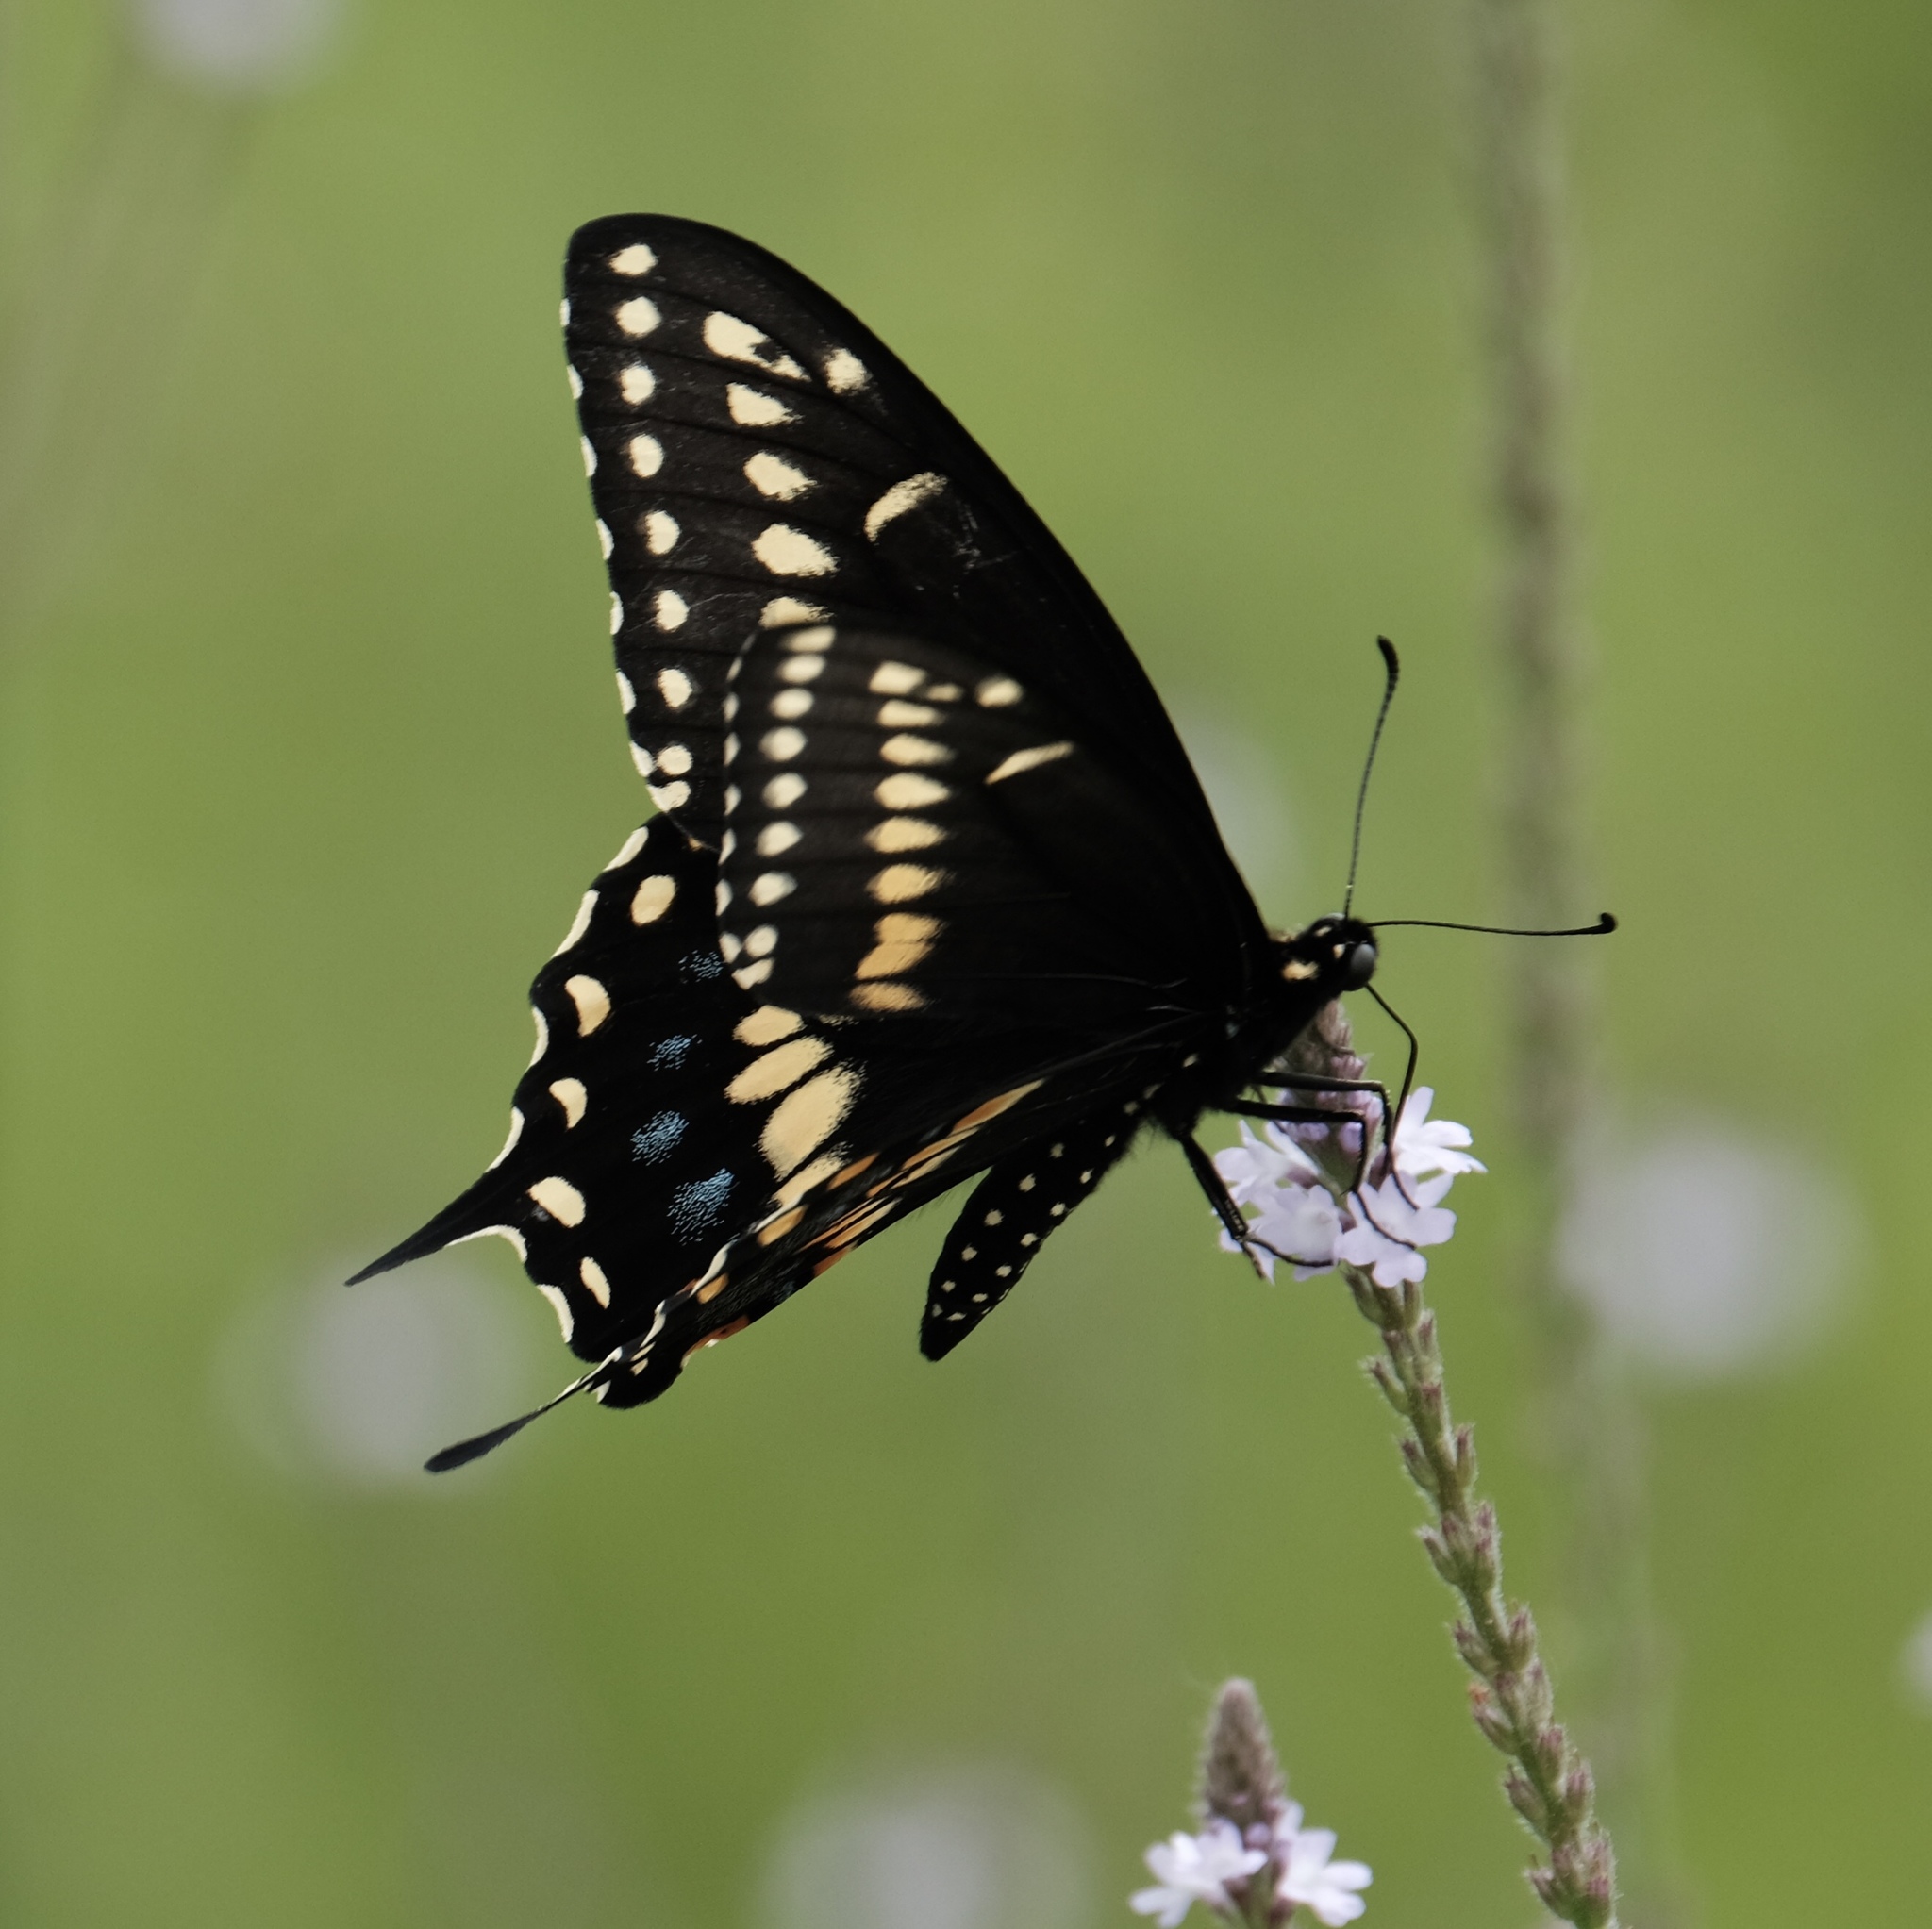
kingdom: Animalia
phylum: Arthropoda
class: Insecta
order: Lepidoptera
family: Papilionidae
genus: Papilio
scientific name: Papilio polyxenes
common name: Black swallowtail
